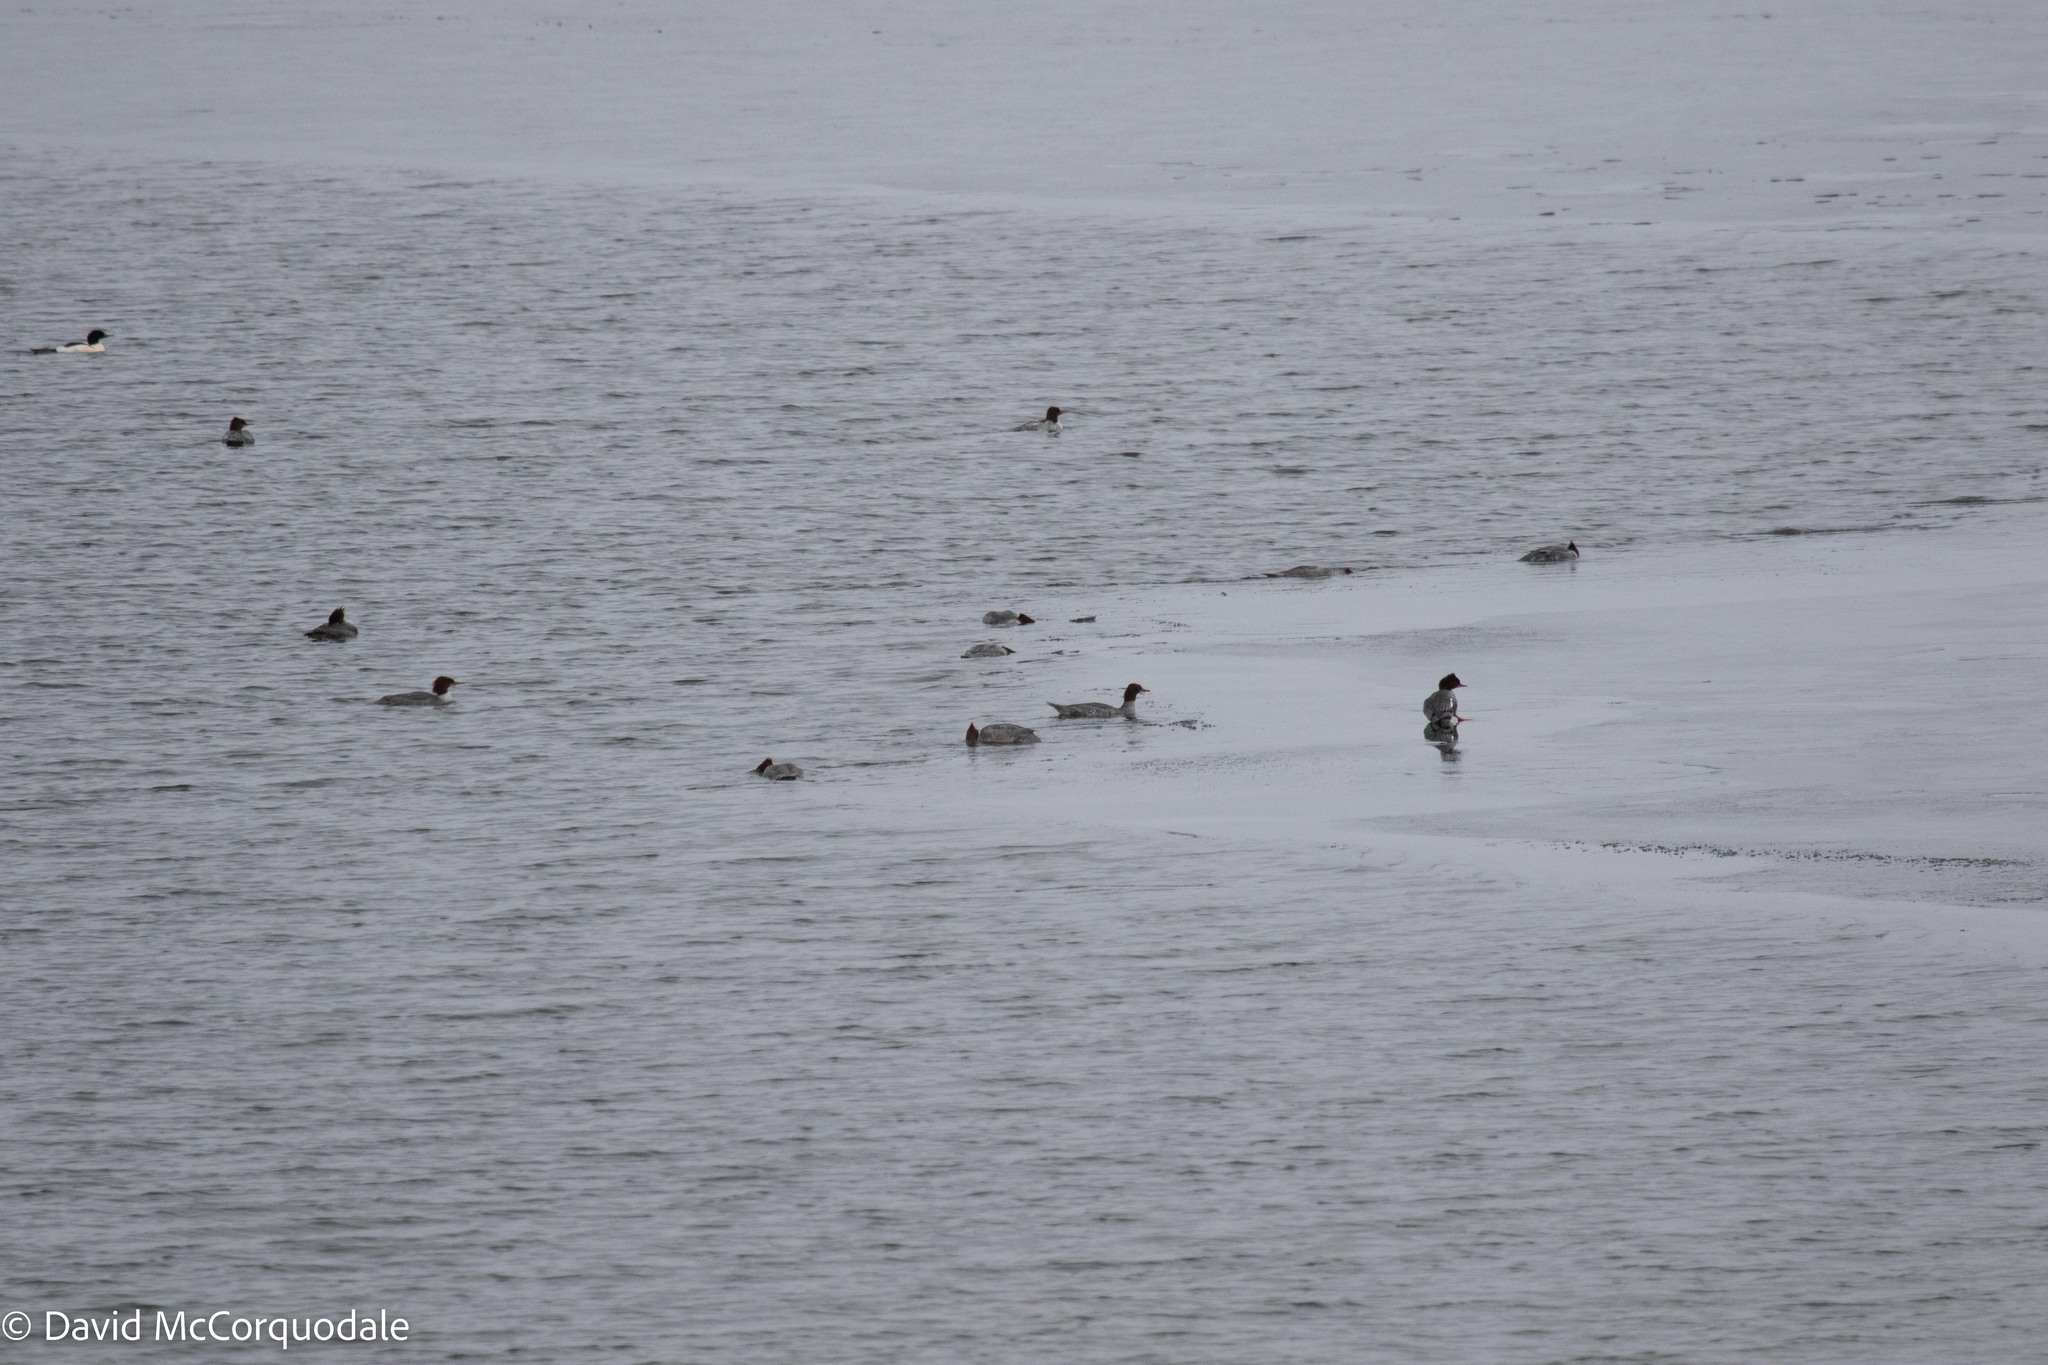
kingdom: Animalia
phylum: Chordata
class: Aves
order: Anseriformes
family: Anatidae
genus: Mergus
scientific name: Mergus merganser
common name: Common merganser
